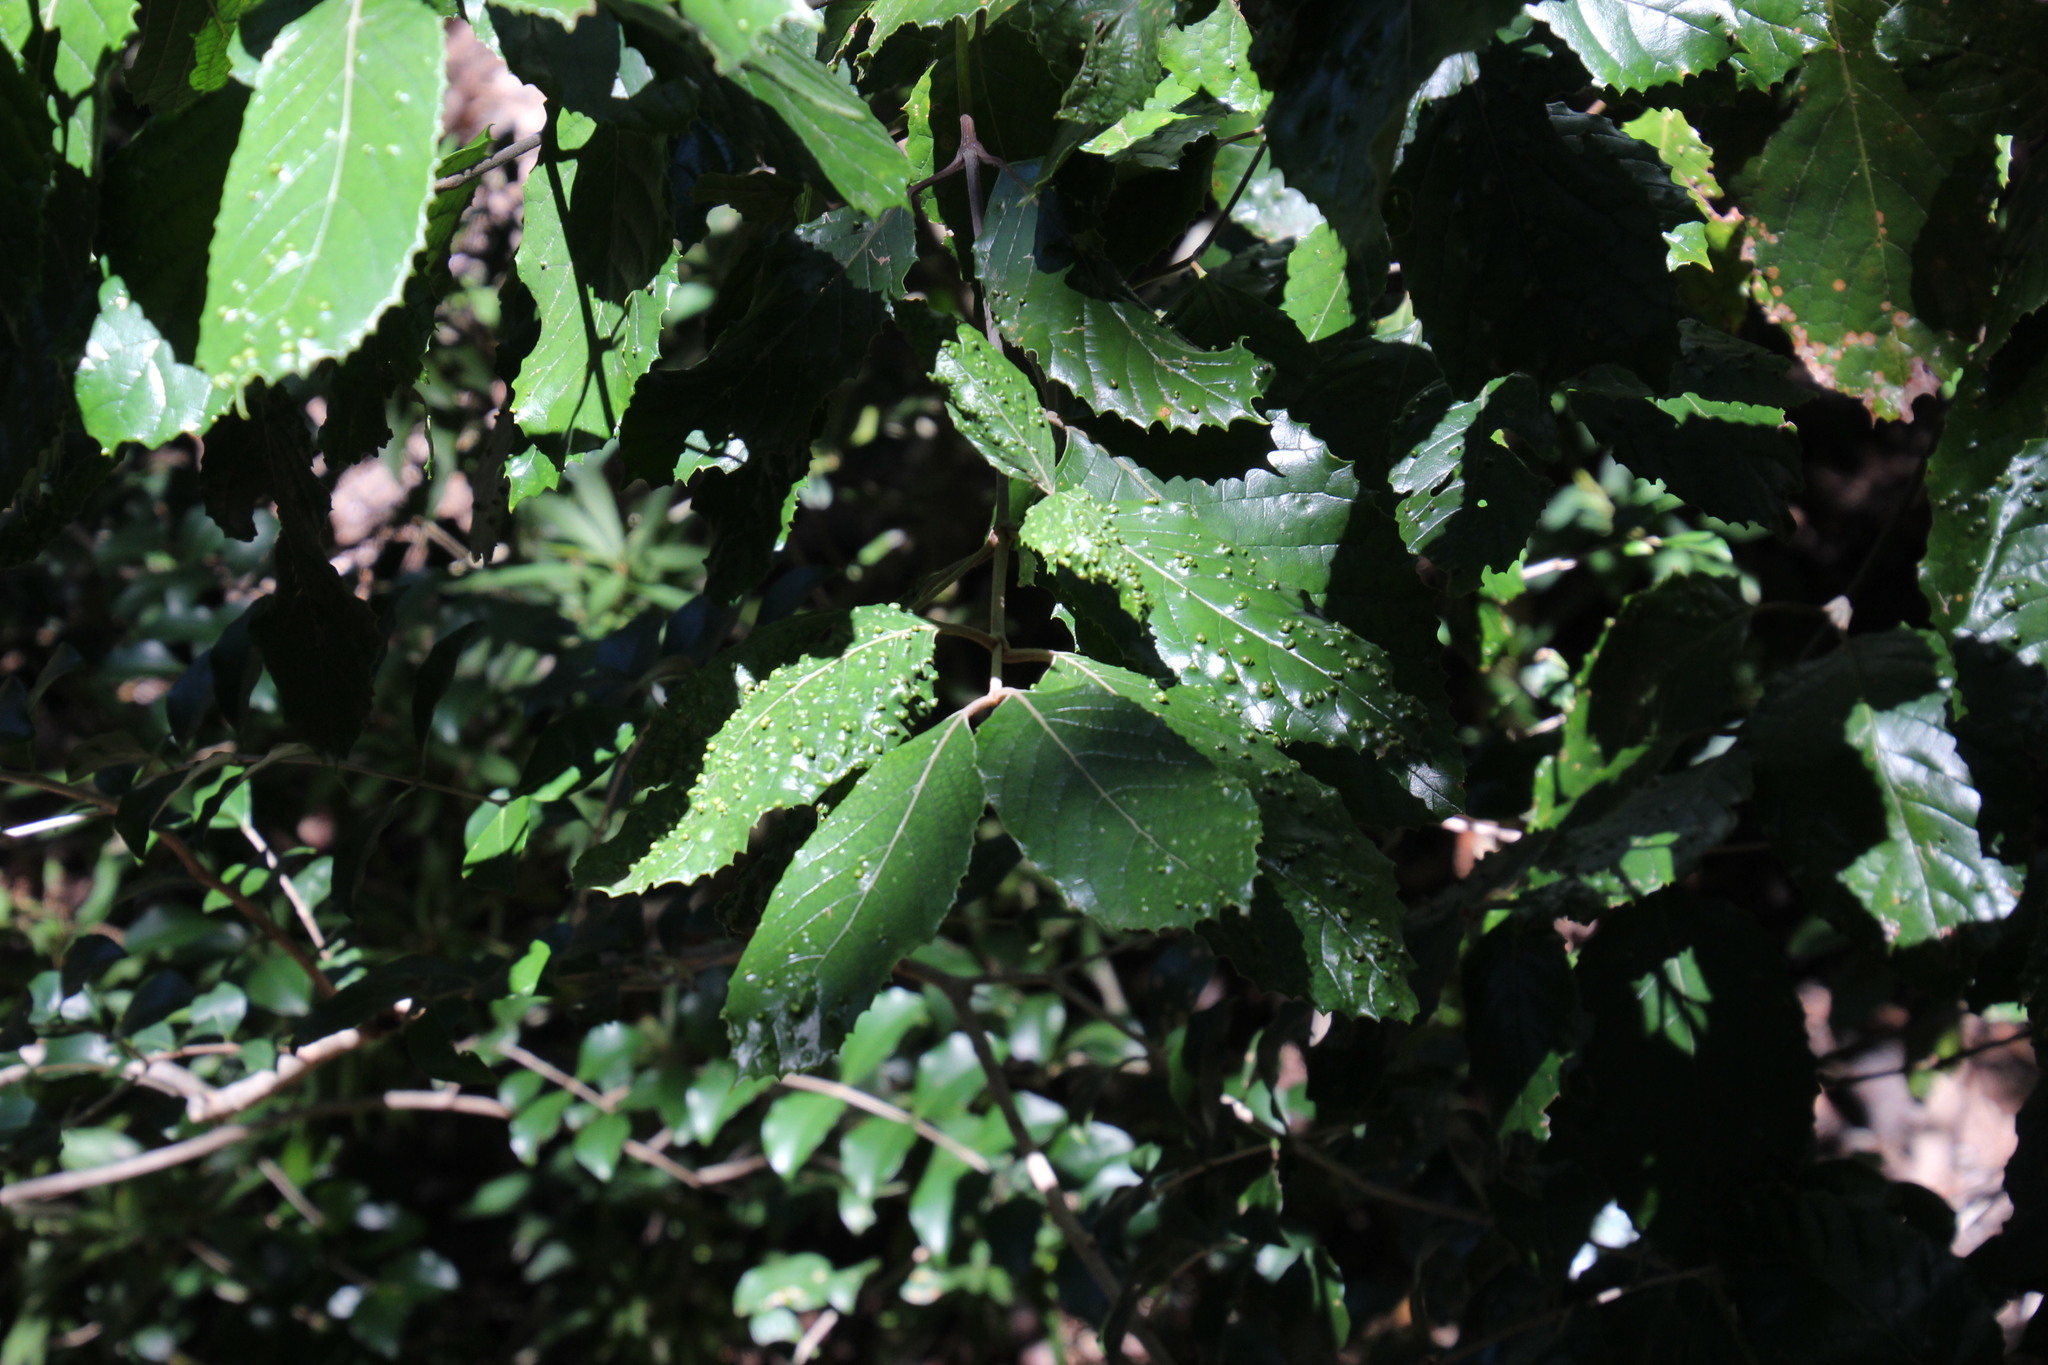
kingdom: Plantae
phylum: Tracheophyta
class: Magnoliopsida
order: Cornales
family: Curtisiaceae
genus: Curtisia
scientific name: Curtisia dentata
